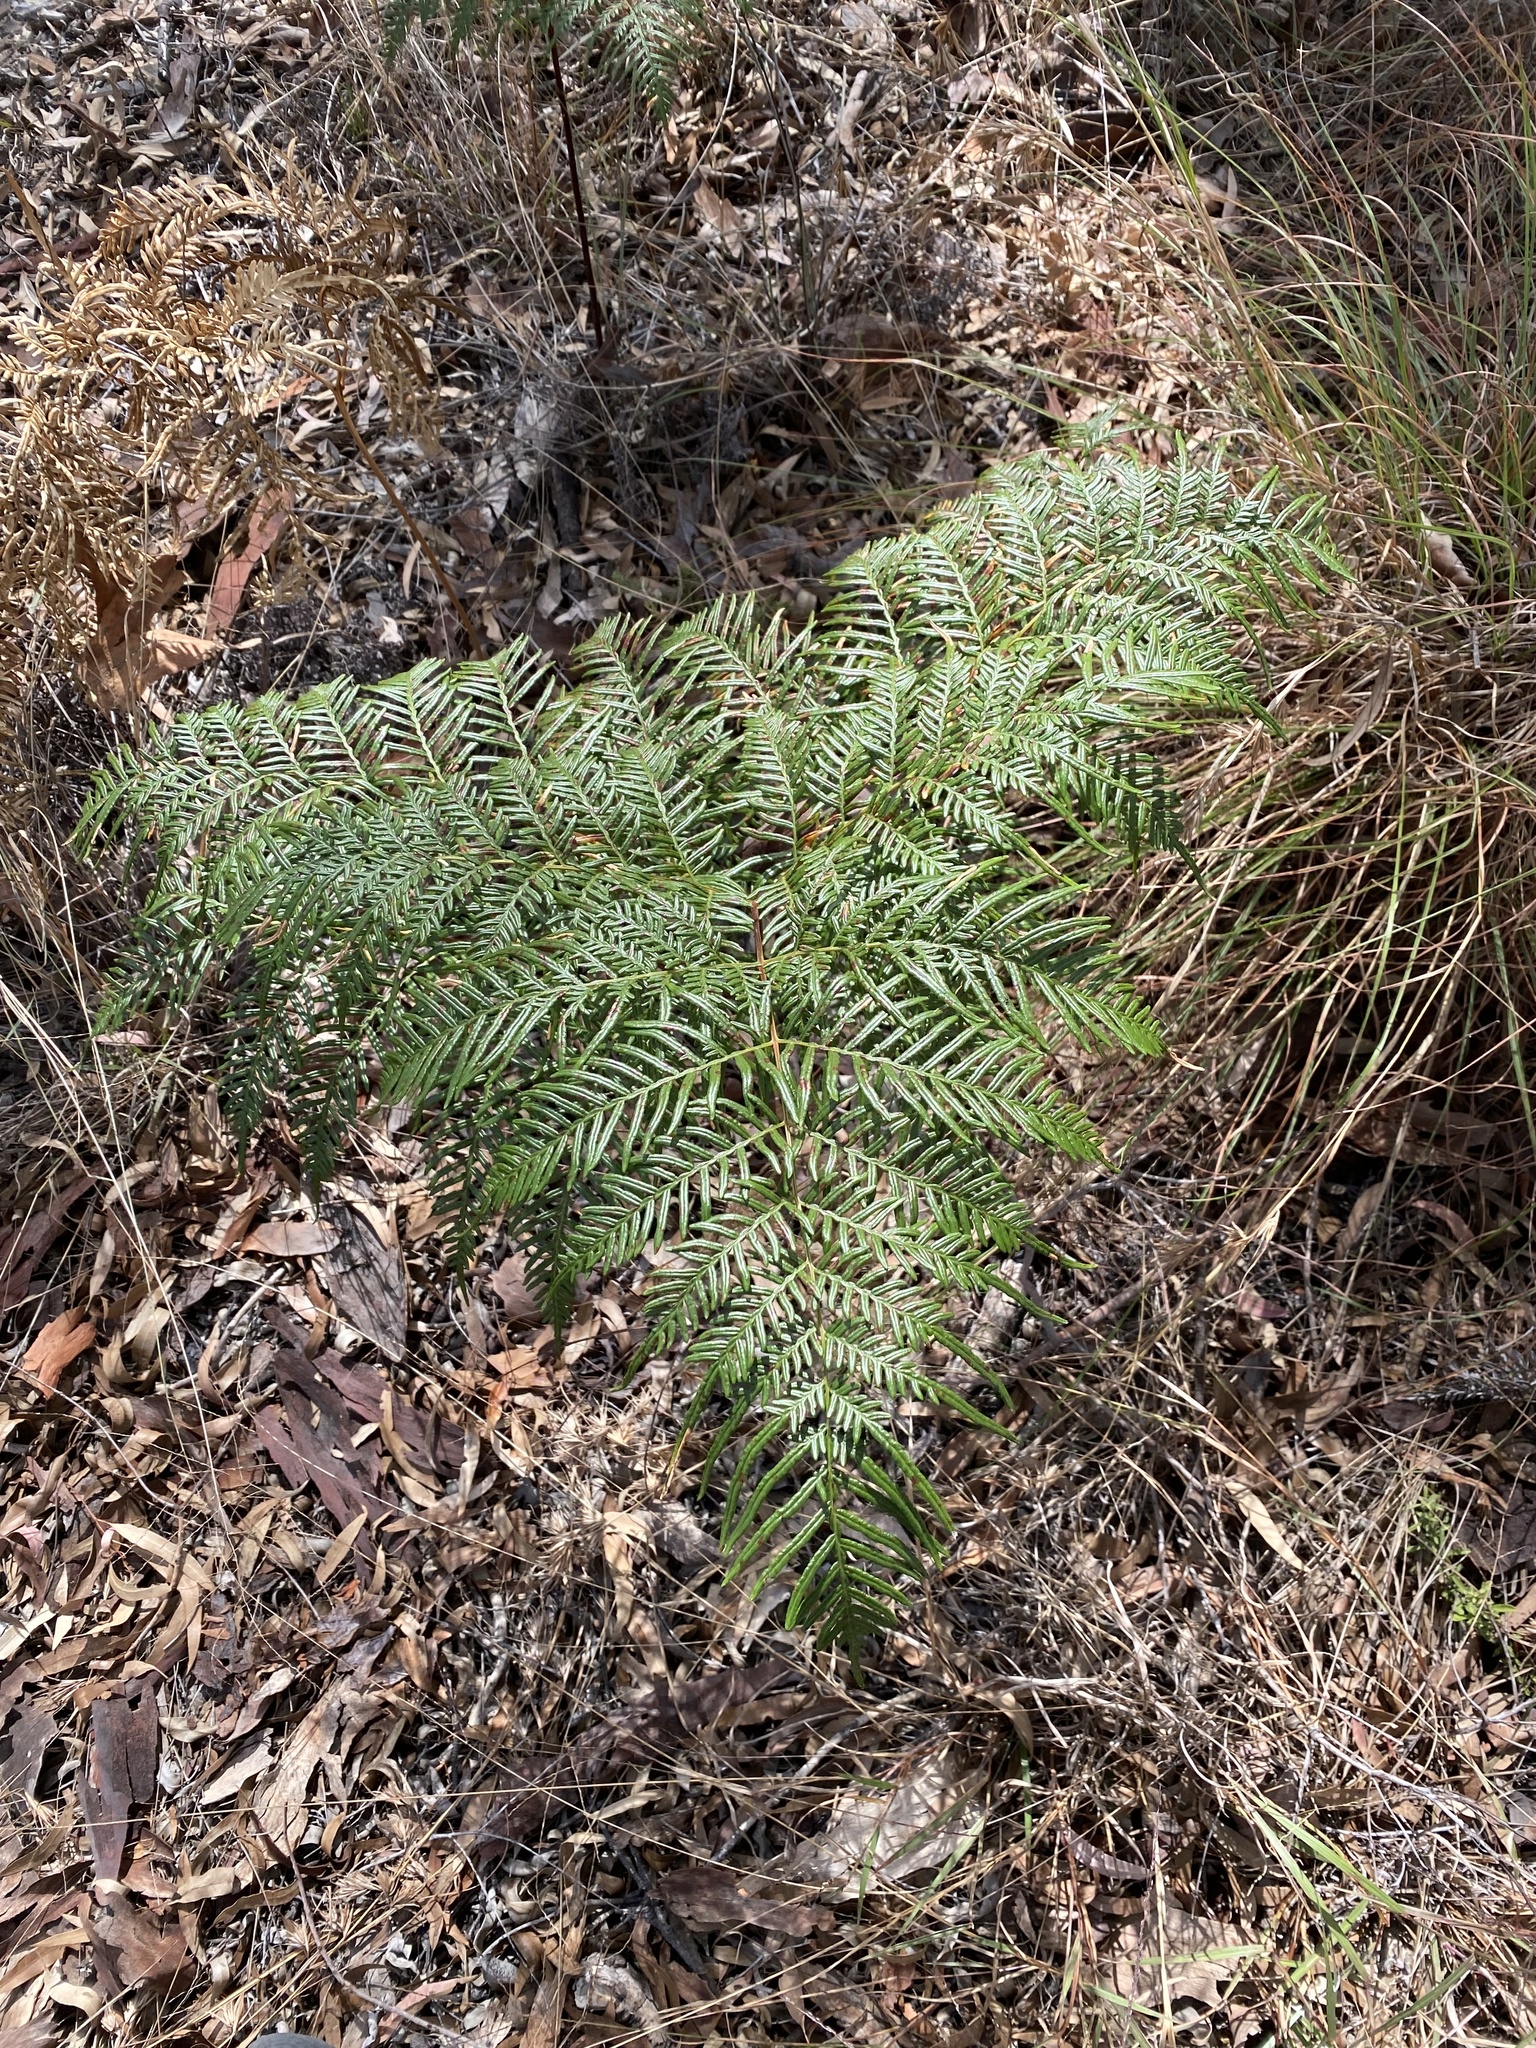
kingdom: Plantae
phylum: Tracheophyta
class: Polypodiopsida
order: Polypodiales
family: Dennstaedtiaceae
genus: Pteridium
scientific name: Pteridium esculentum
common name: Bracken fern
